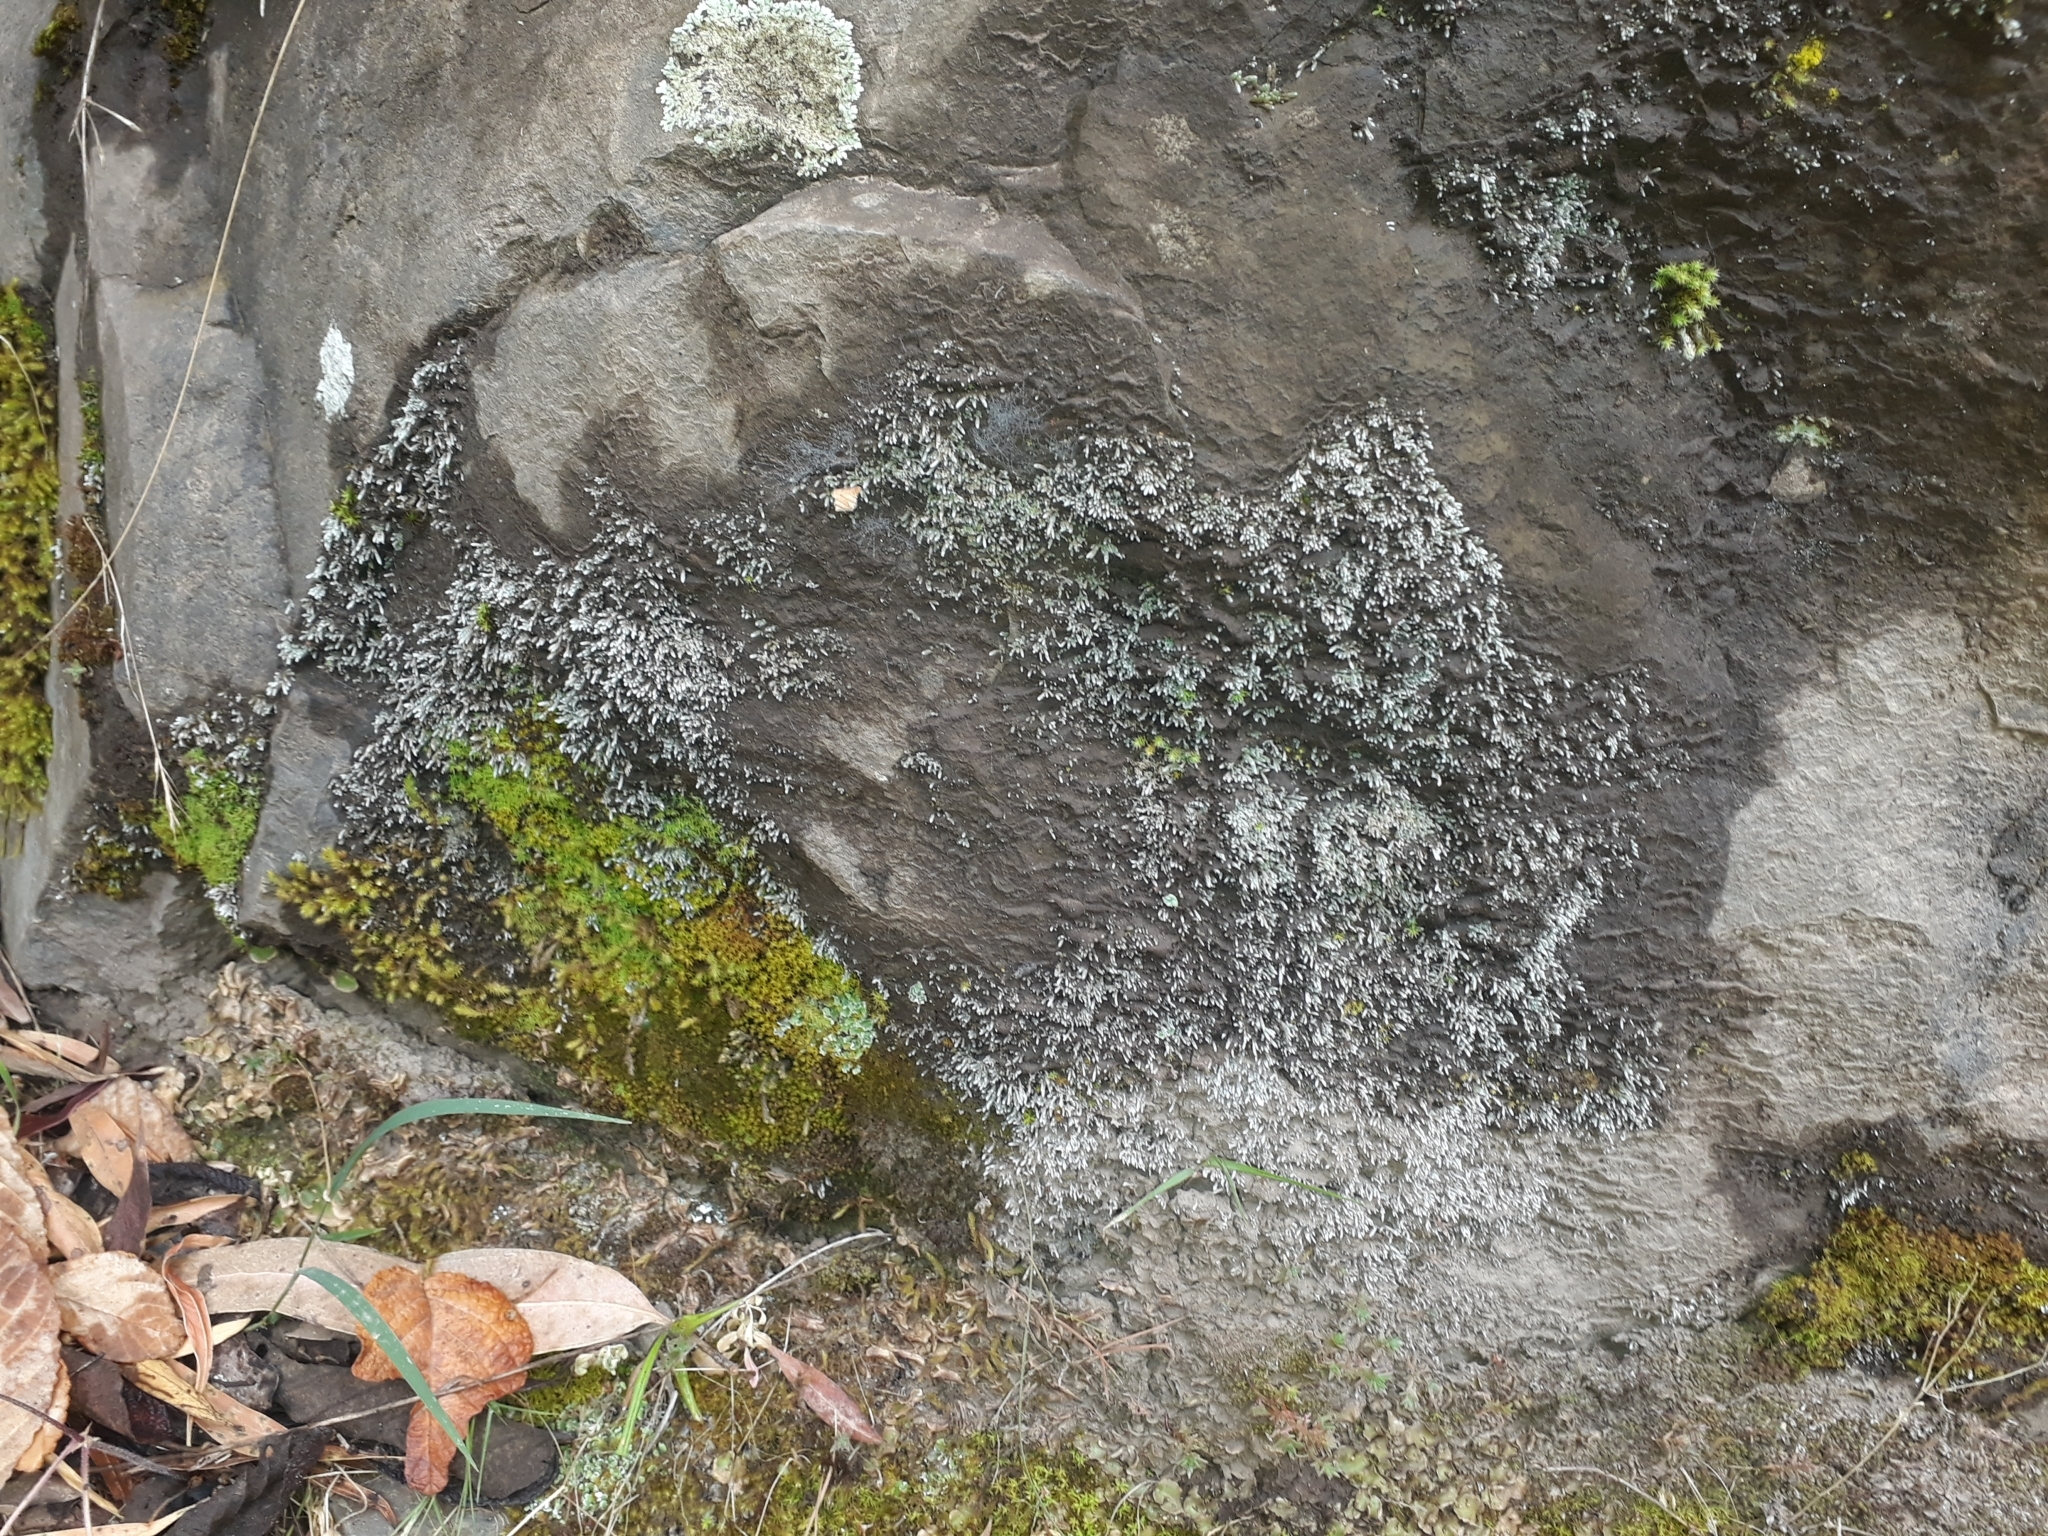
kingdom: Plantae
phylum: Bryophyta
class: Bryopsida
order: Bryales
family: Bryaceae
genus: Bryum
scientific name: Bryum argenteum
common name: Silver-moss
